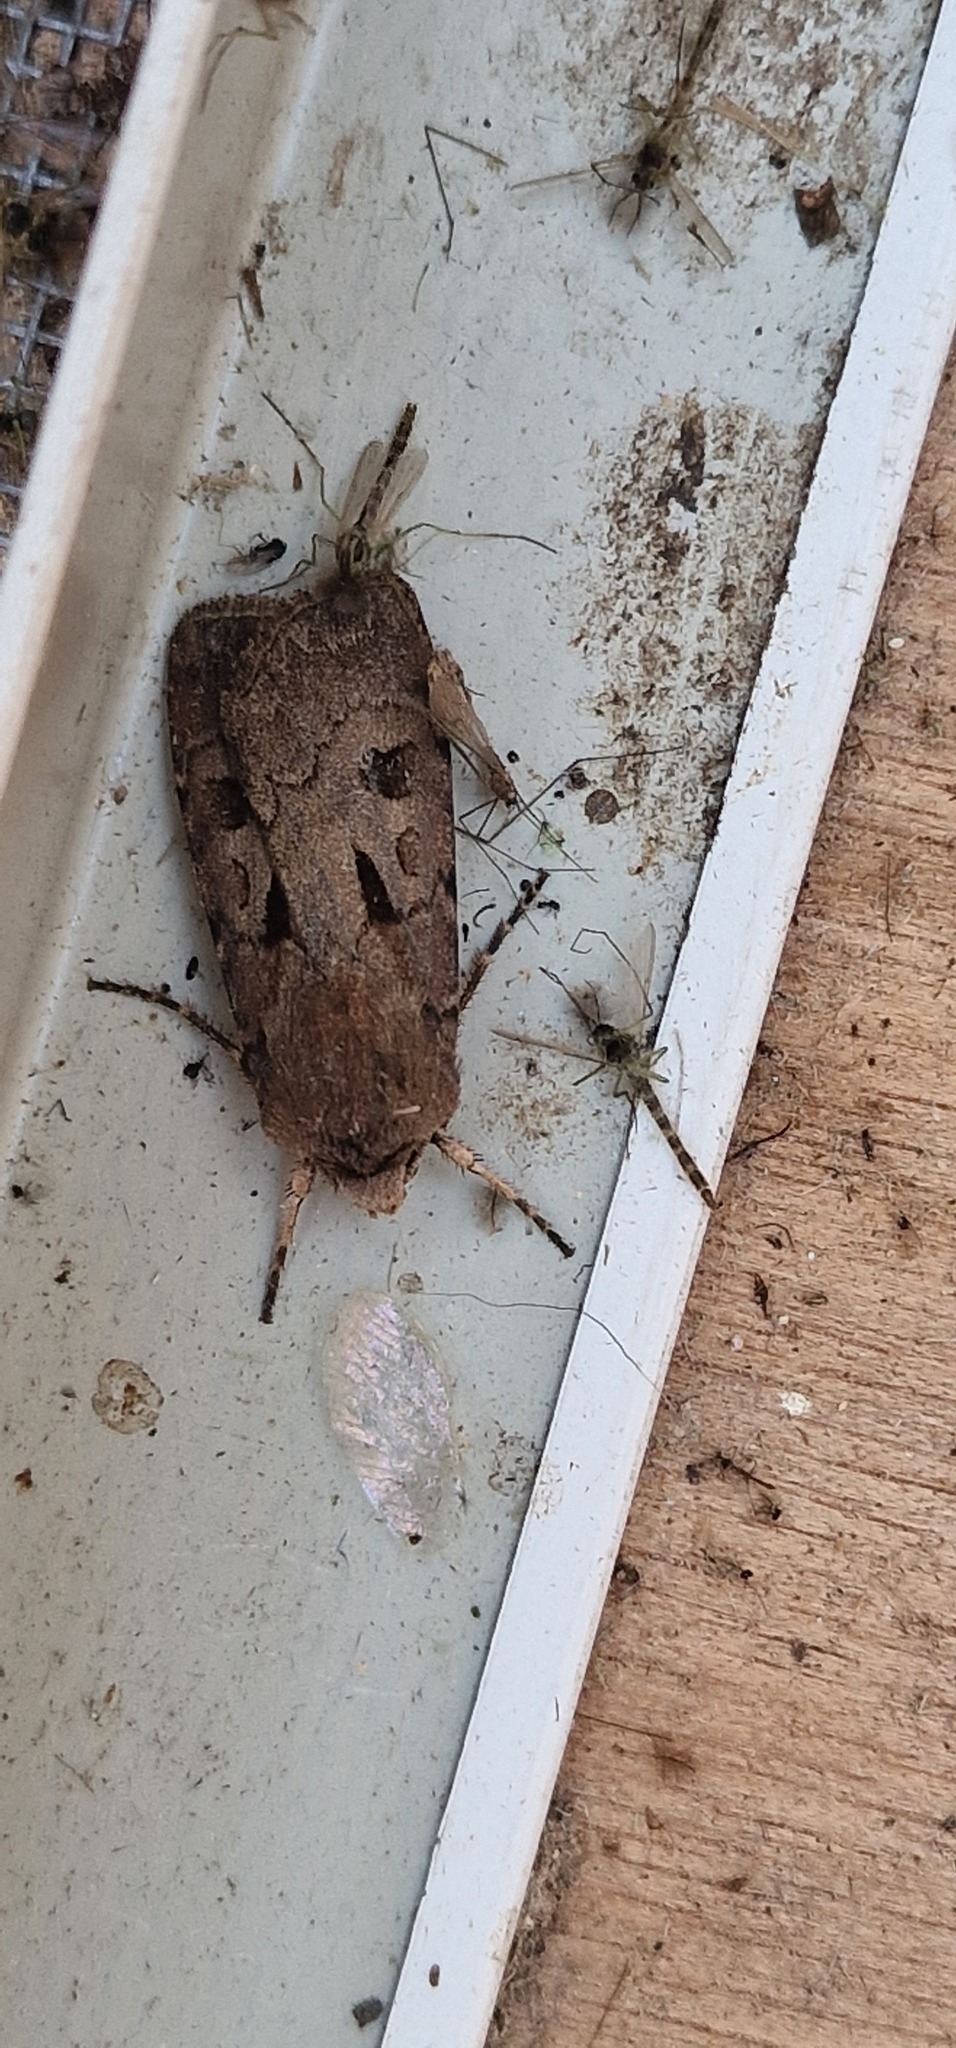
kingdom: Animalia
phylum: Arthropoda
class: Insecta
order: Lepidoptera
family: Noctuidae
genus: Agrotis
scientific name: Agrotis exclamationis
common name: Heart and dart
